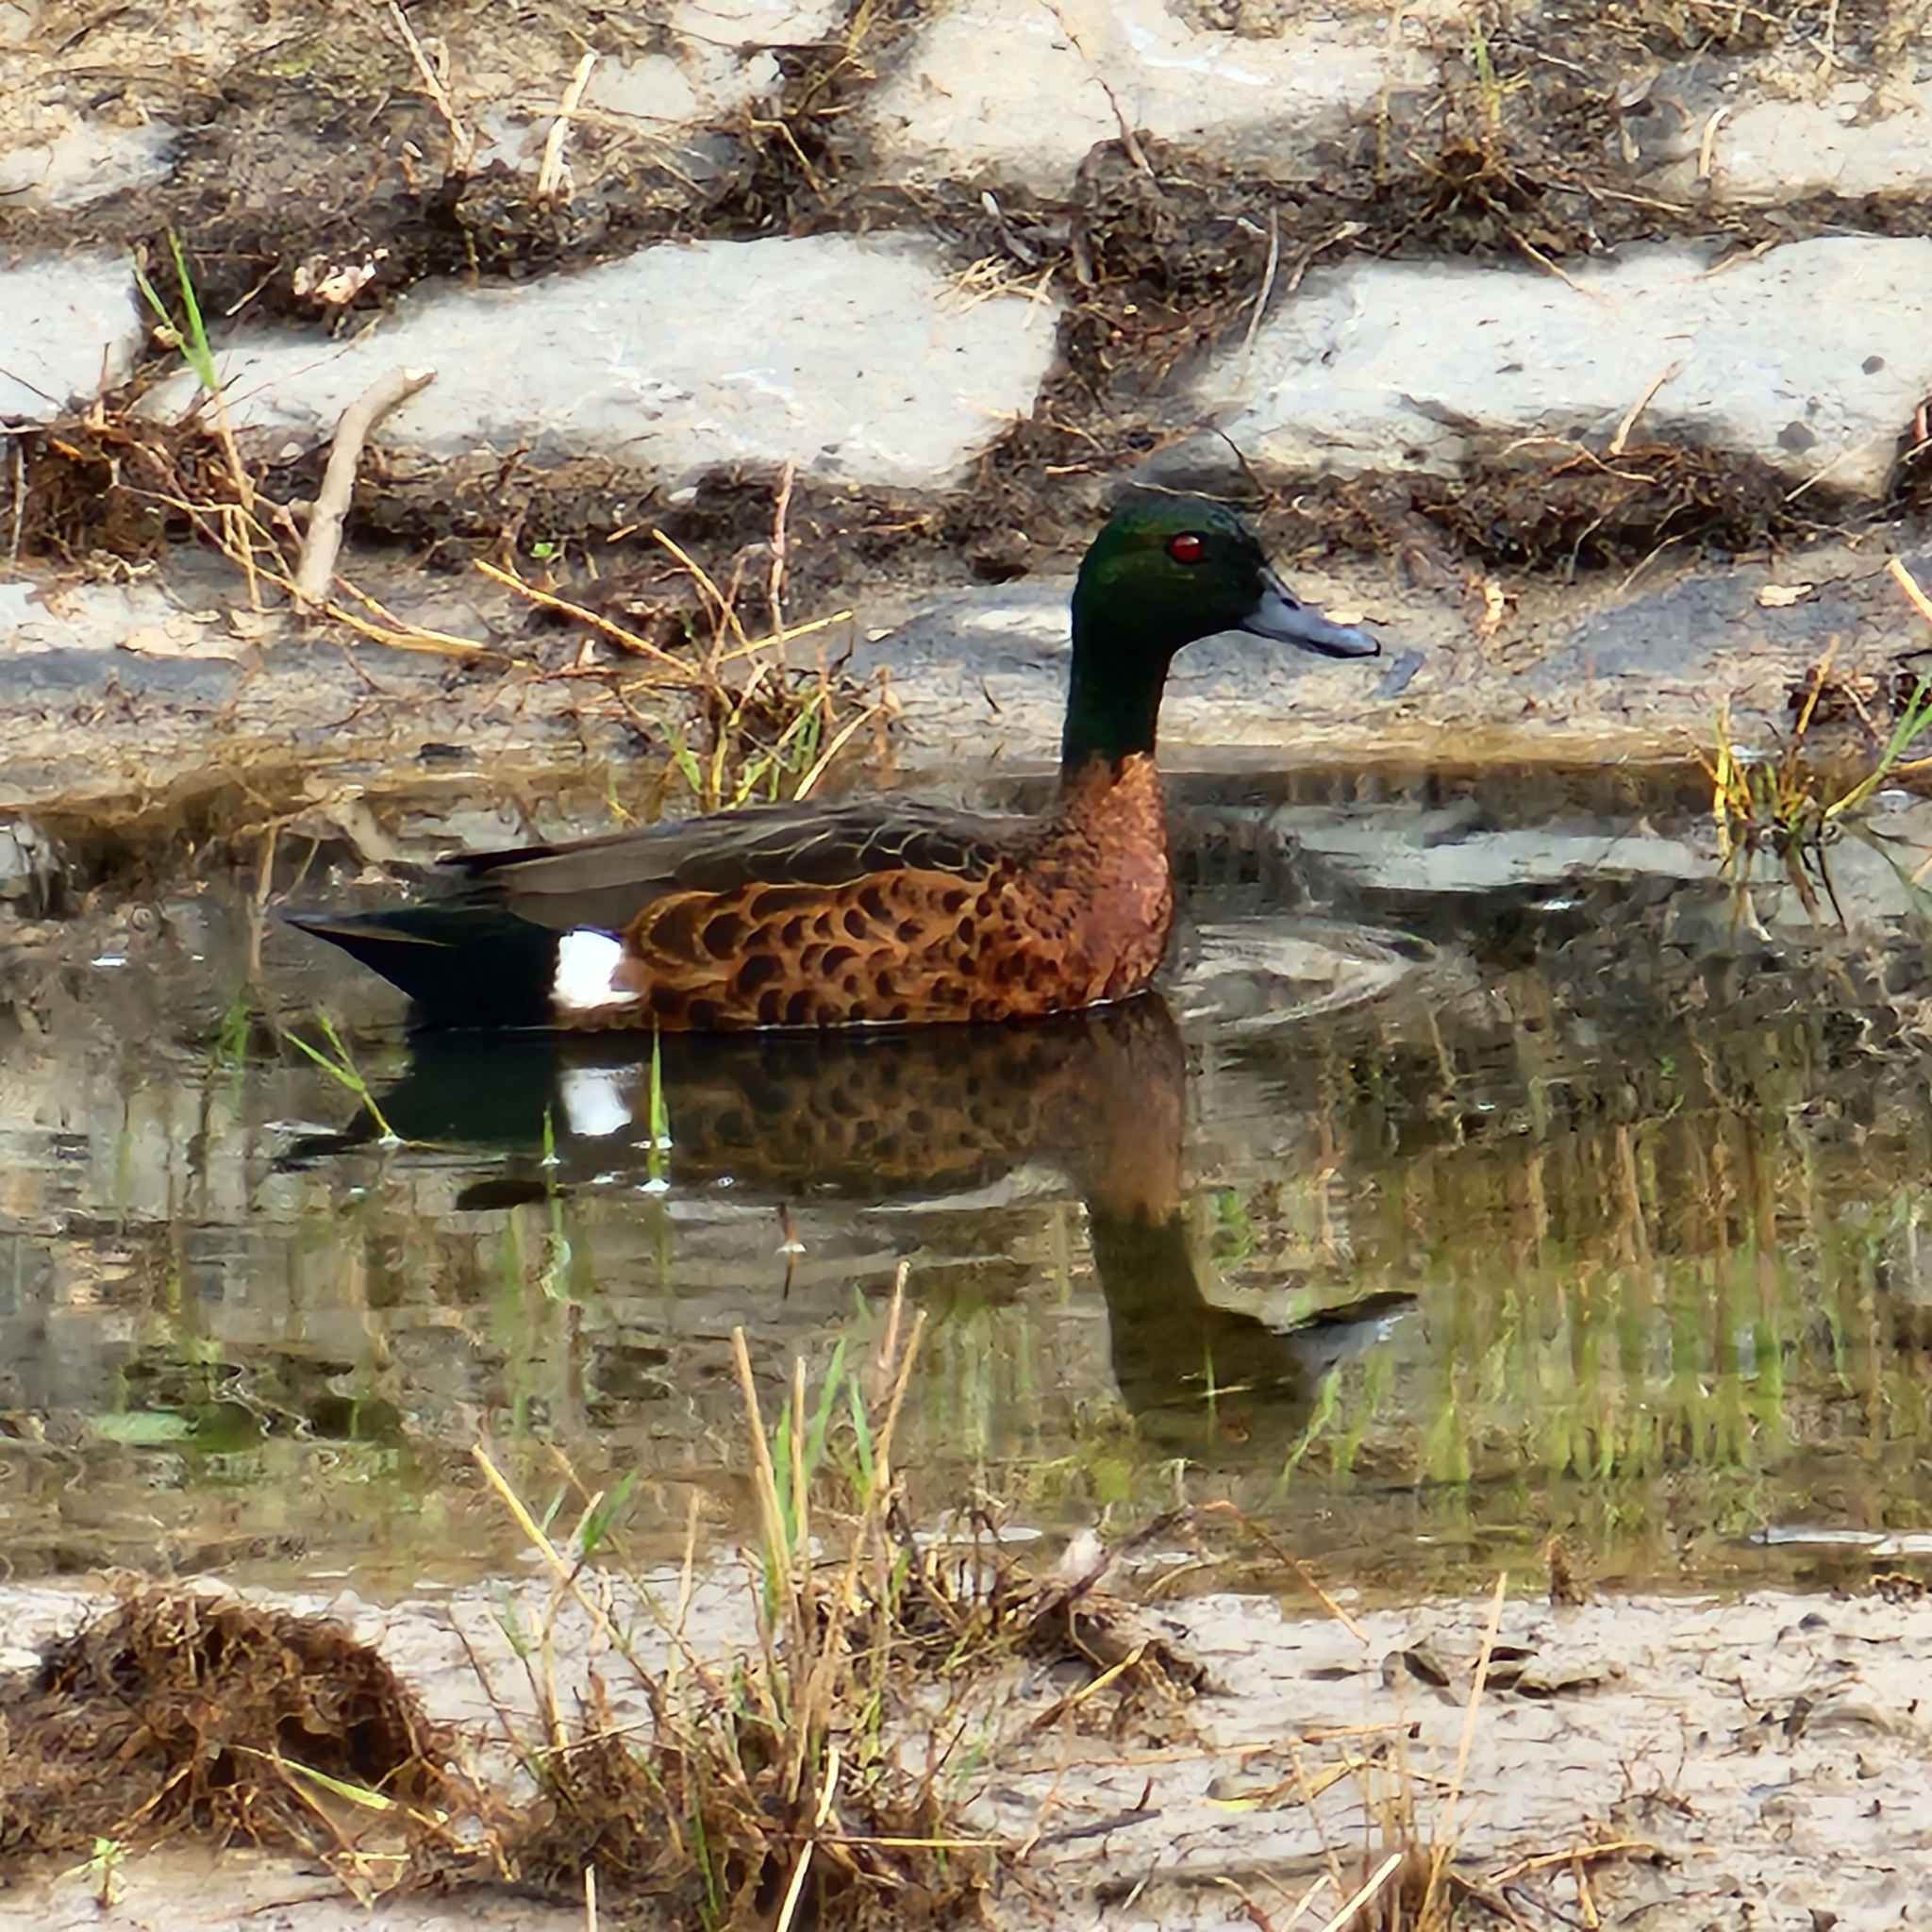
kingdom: Animalia
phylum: Chordata
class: Aves
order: Anseriformes
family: Anatidae
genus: Anas
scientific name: Anas castanea
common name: Chestnut teal
